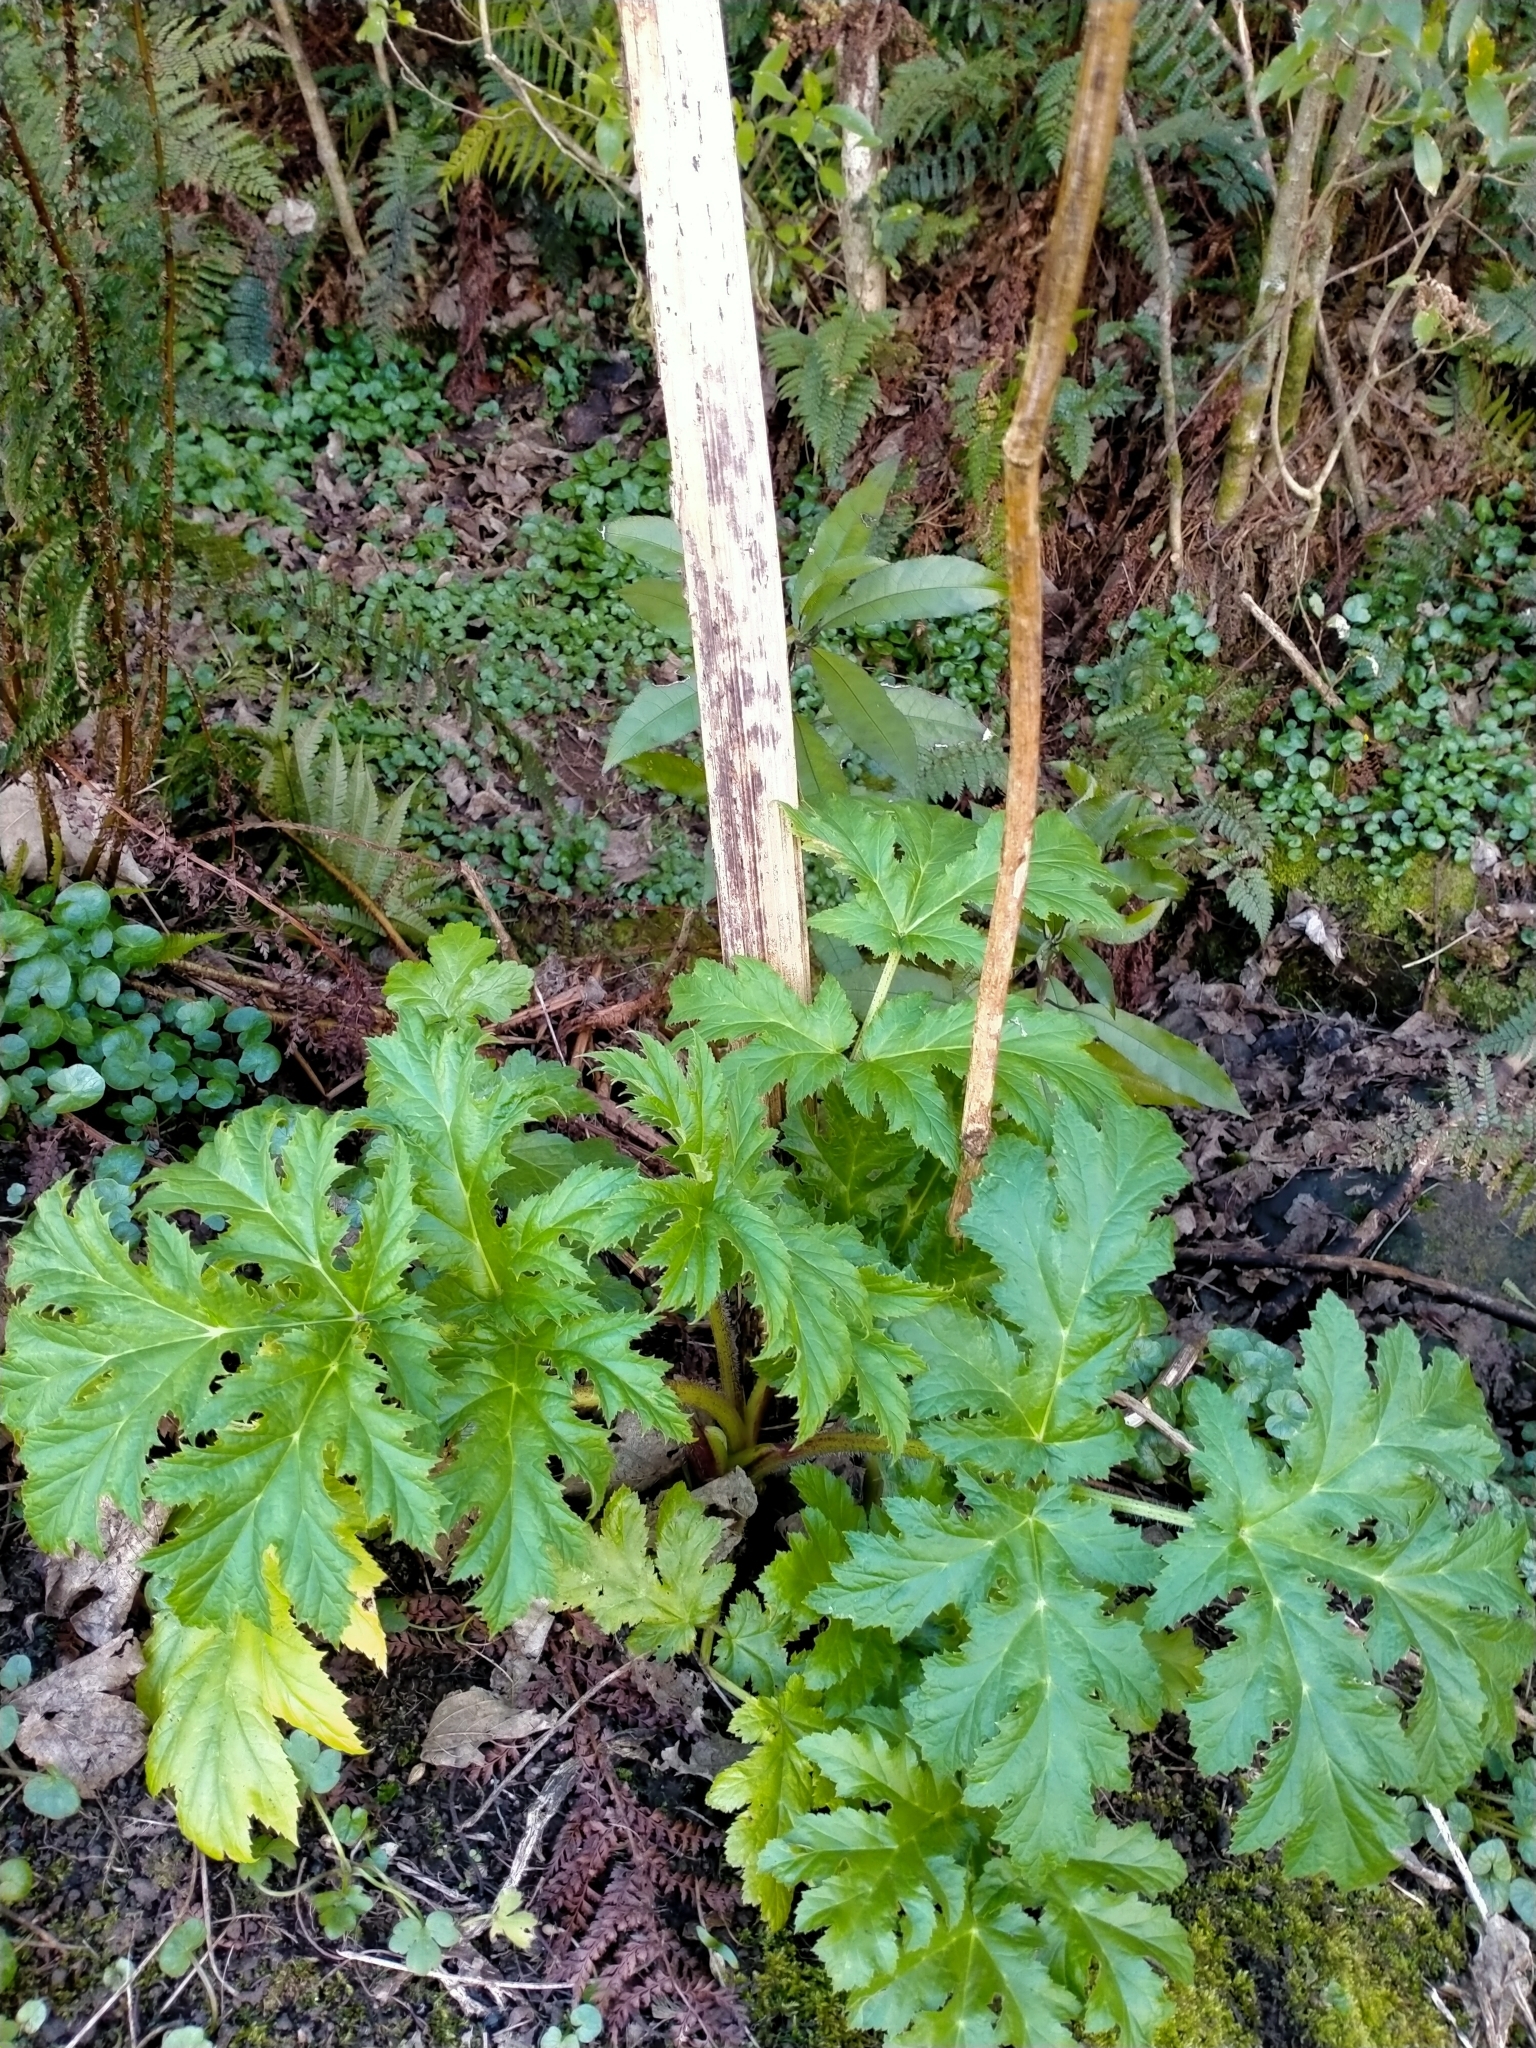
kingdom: Plantae
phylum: Tracheophyta
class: Magnoliopsida
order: Apiales
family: Apiaceae
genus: Heracleum
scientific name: Heracleum mantegazzianum
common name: Giant hogweed
